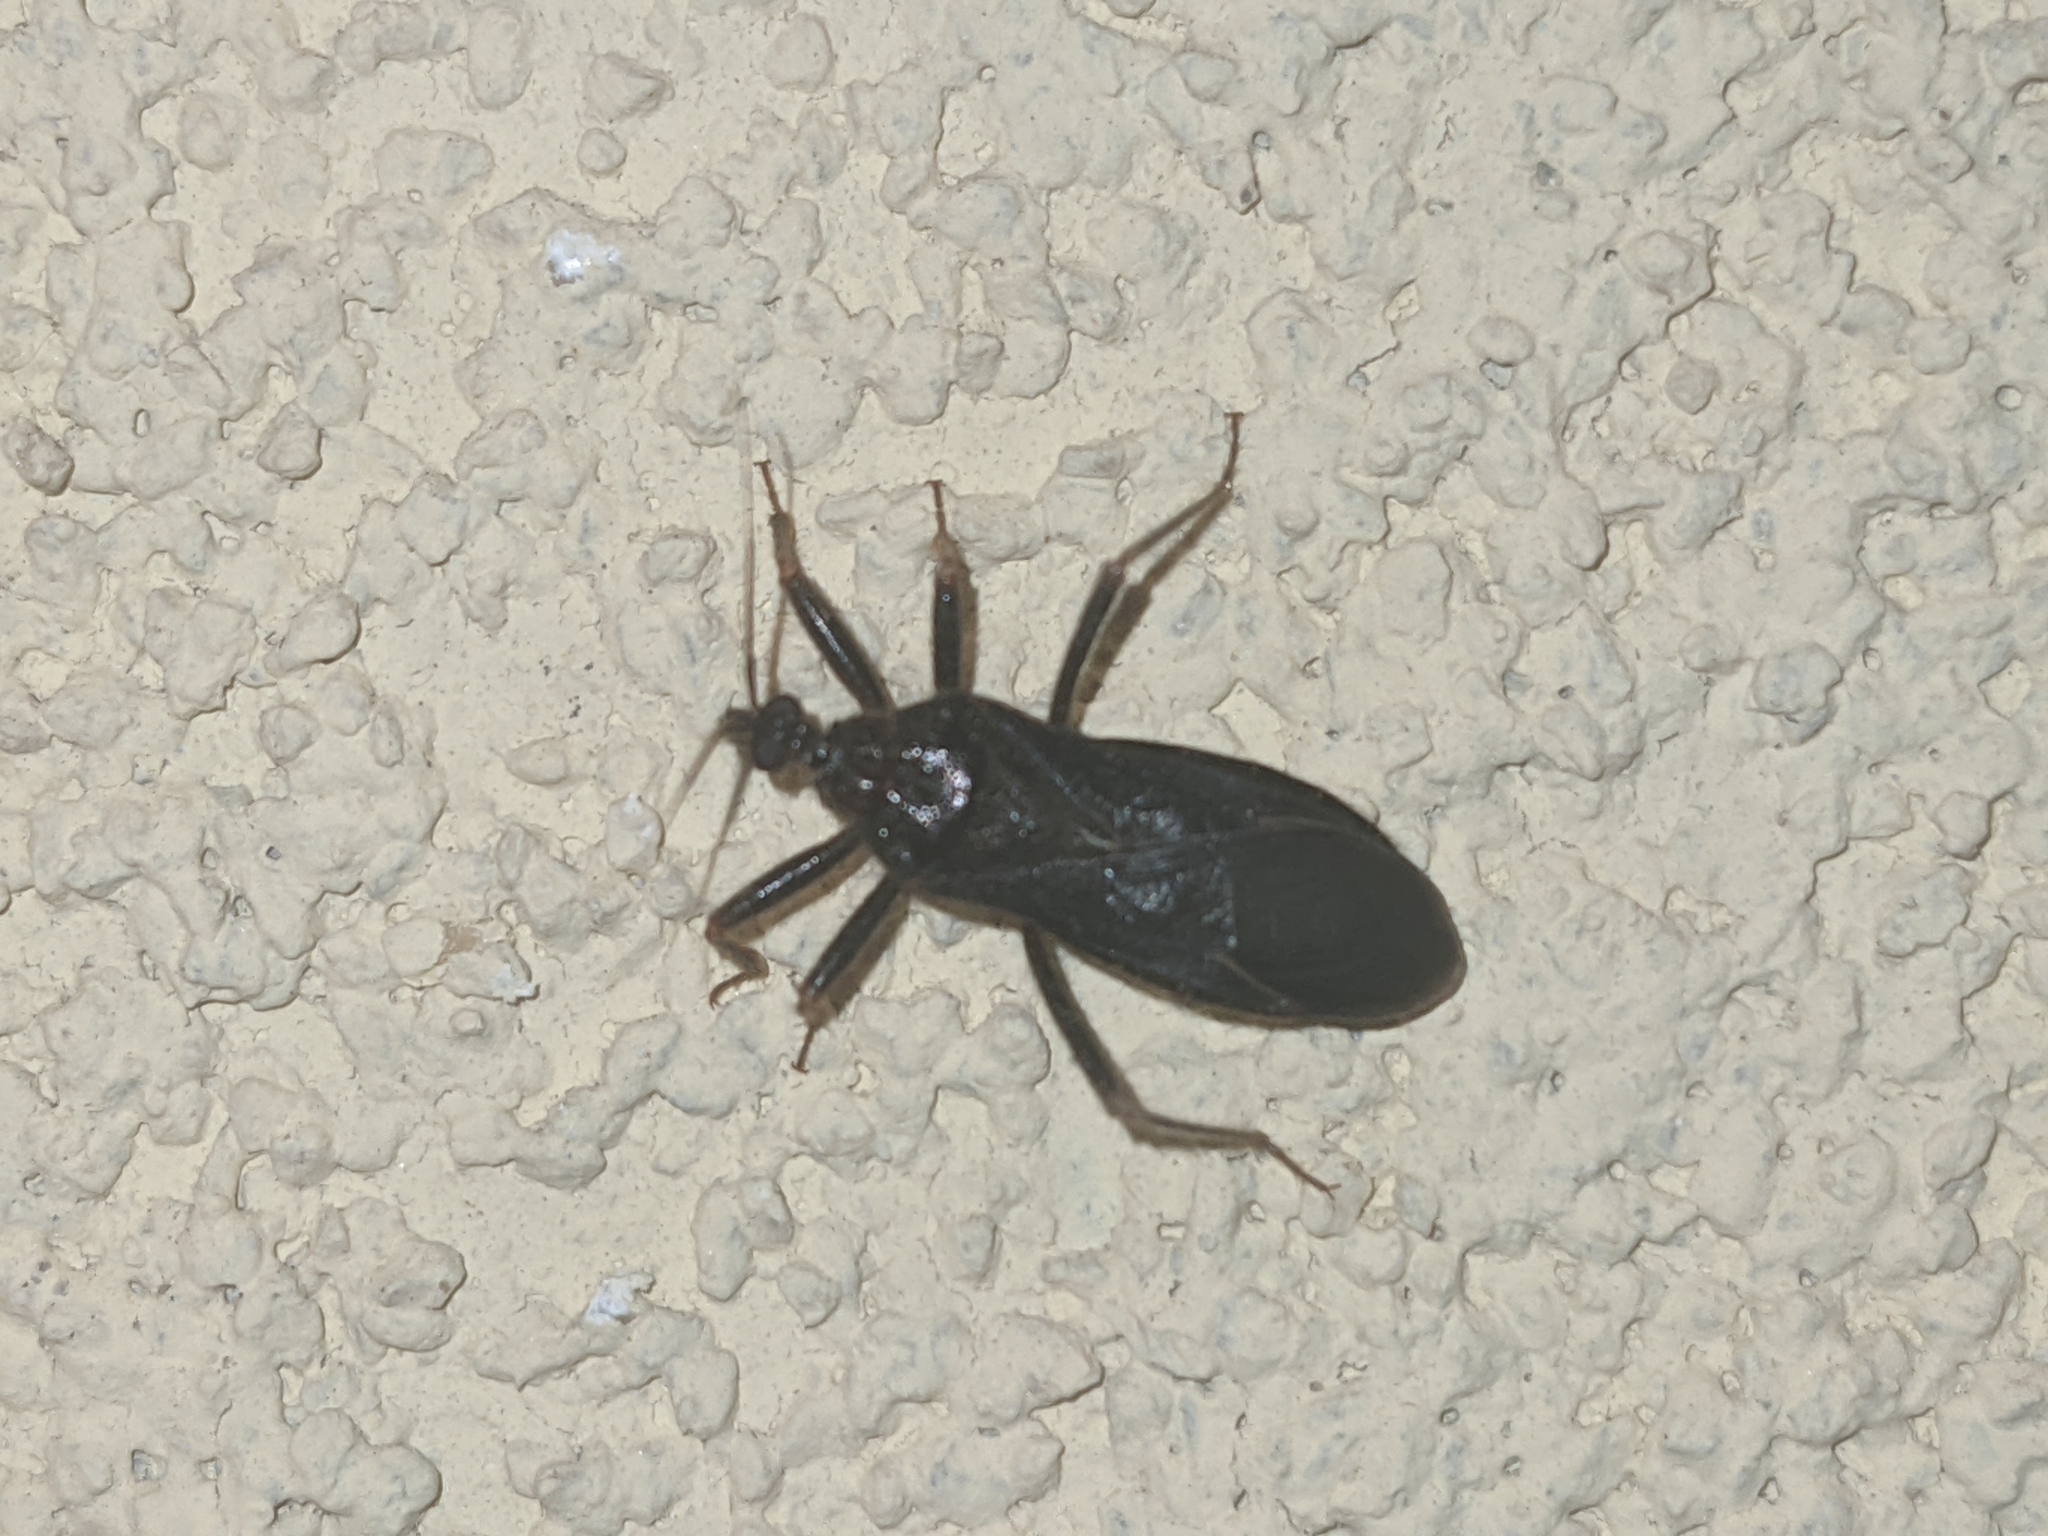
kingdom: Animalia
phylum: Arthropoda
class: Insecta
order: Hemiptera
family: Reduviidae
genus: Reduvius
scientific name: Reduvius personatus
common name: Masked hunter
